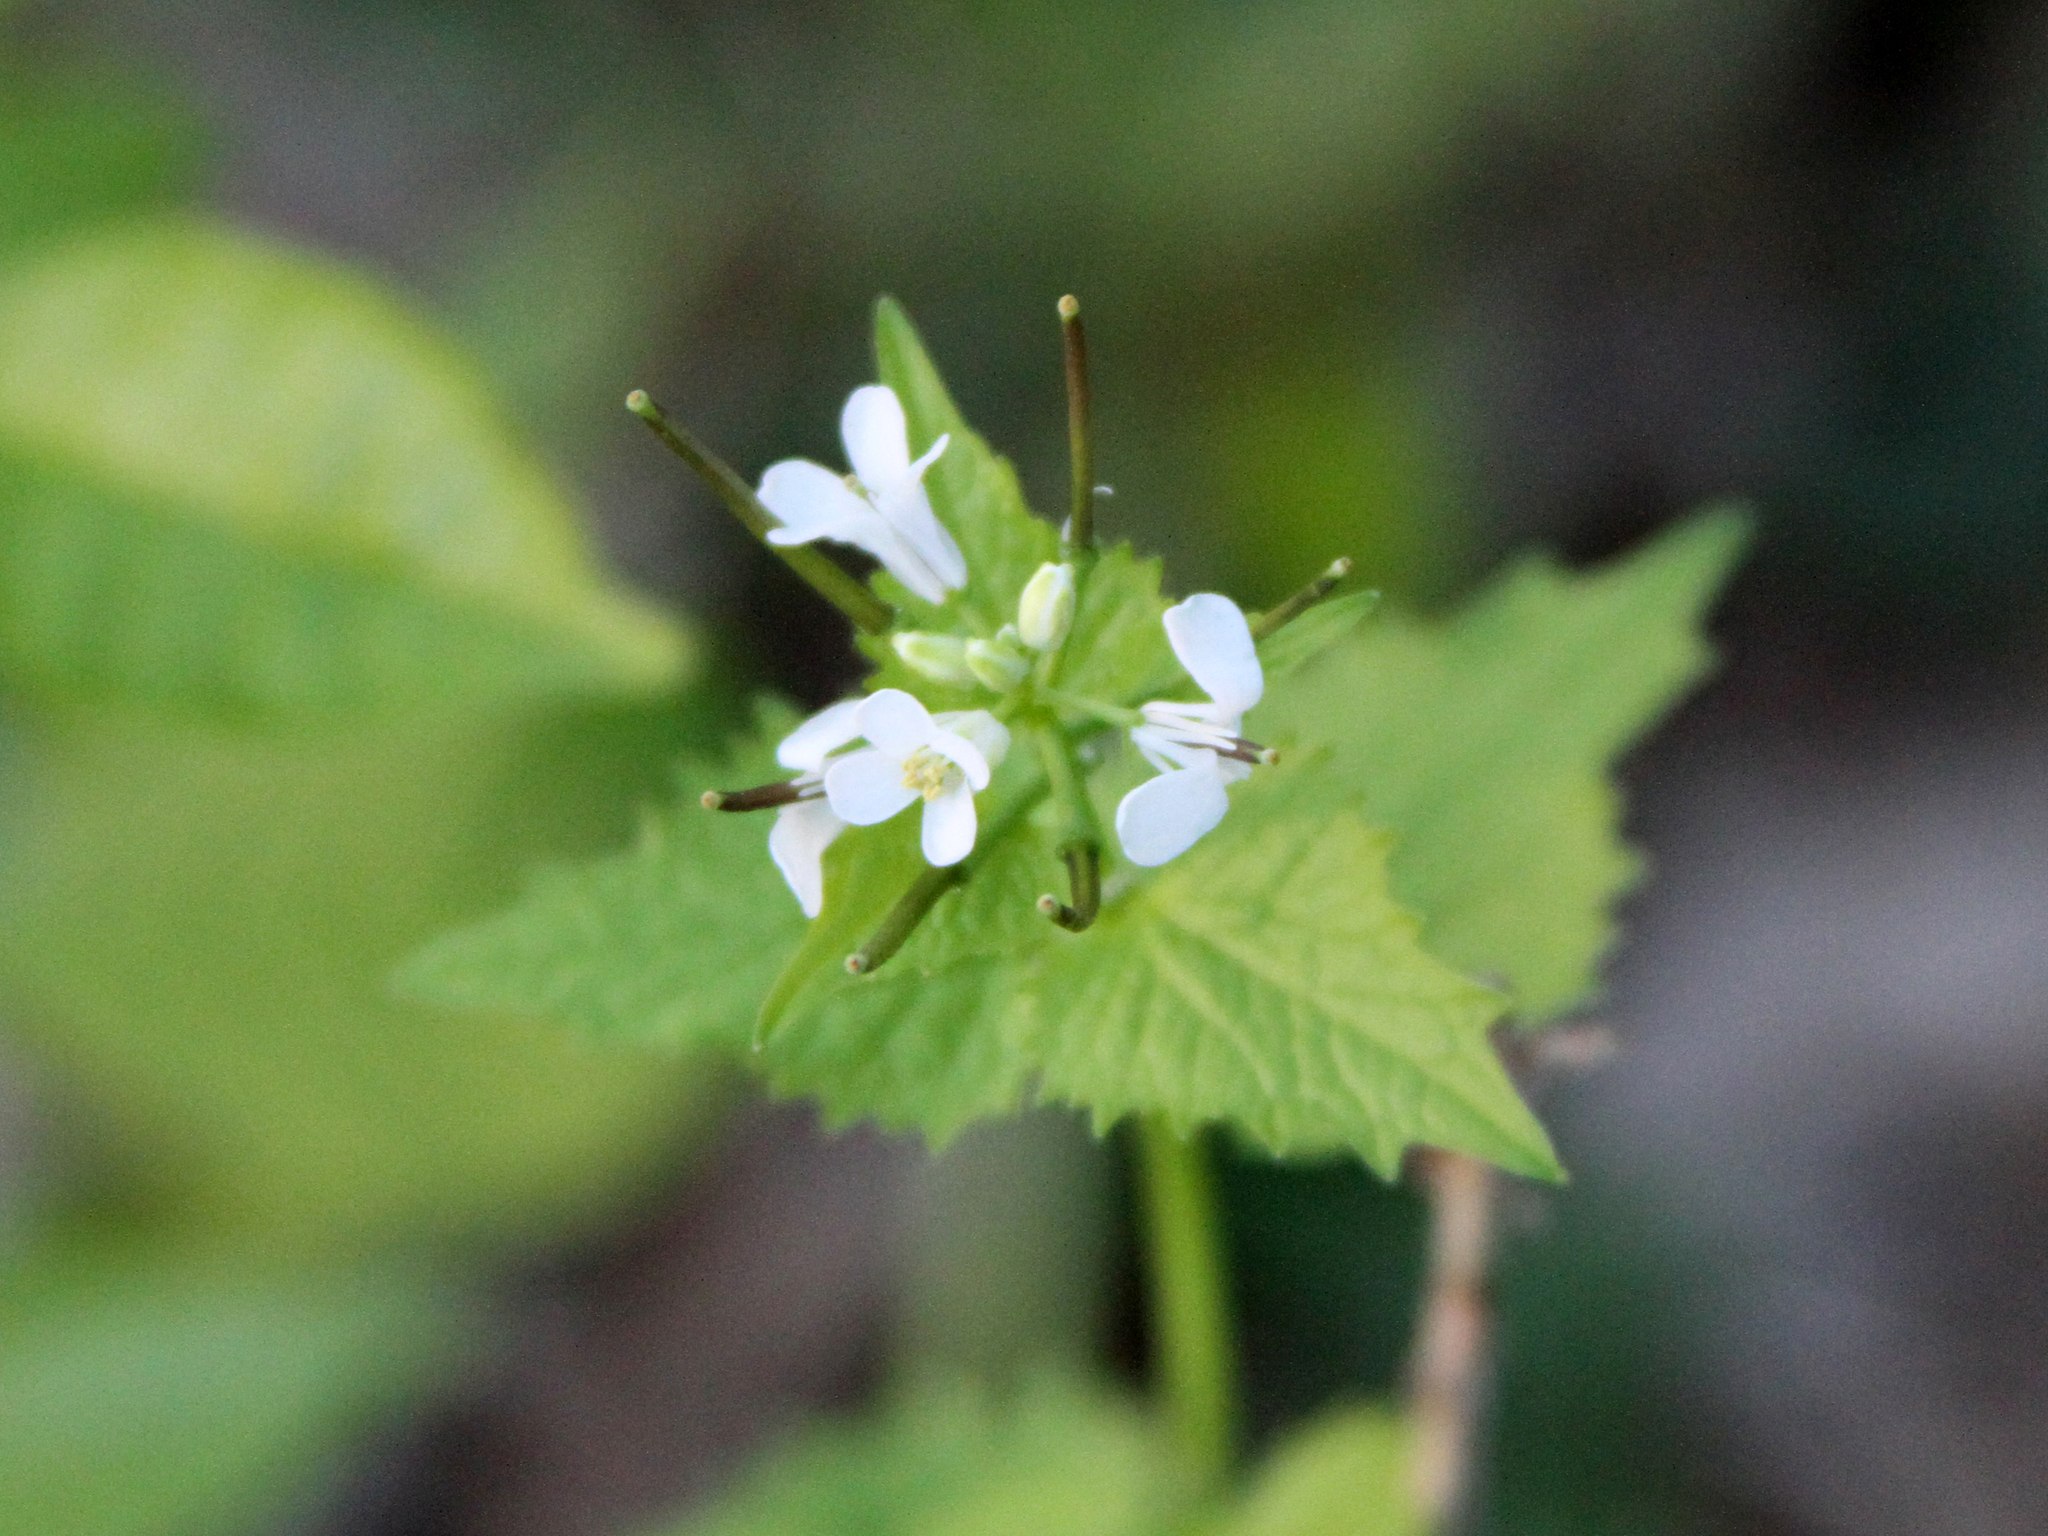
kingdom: Plantae
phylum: Tracheophyta
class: Magnoliopsida
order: Brassicales
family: Brassicaceae
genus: Alliaria
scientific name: Alliaria petiolata
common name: Garlic mustard
